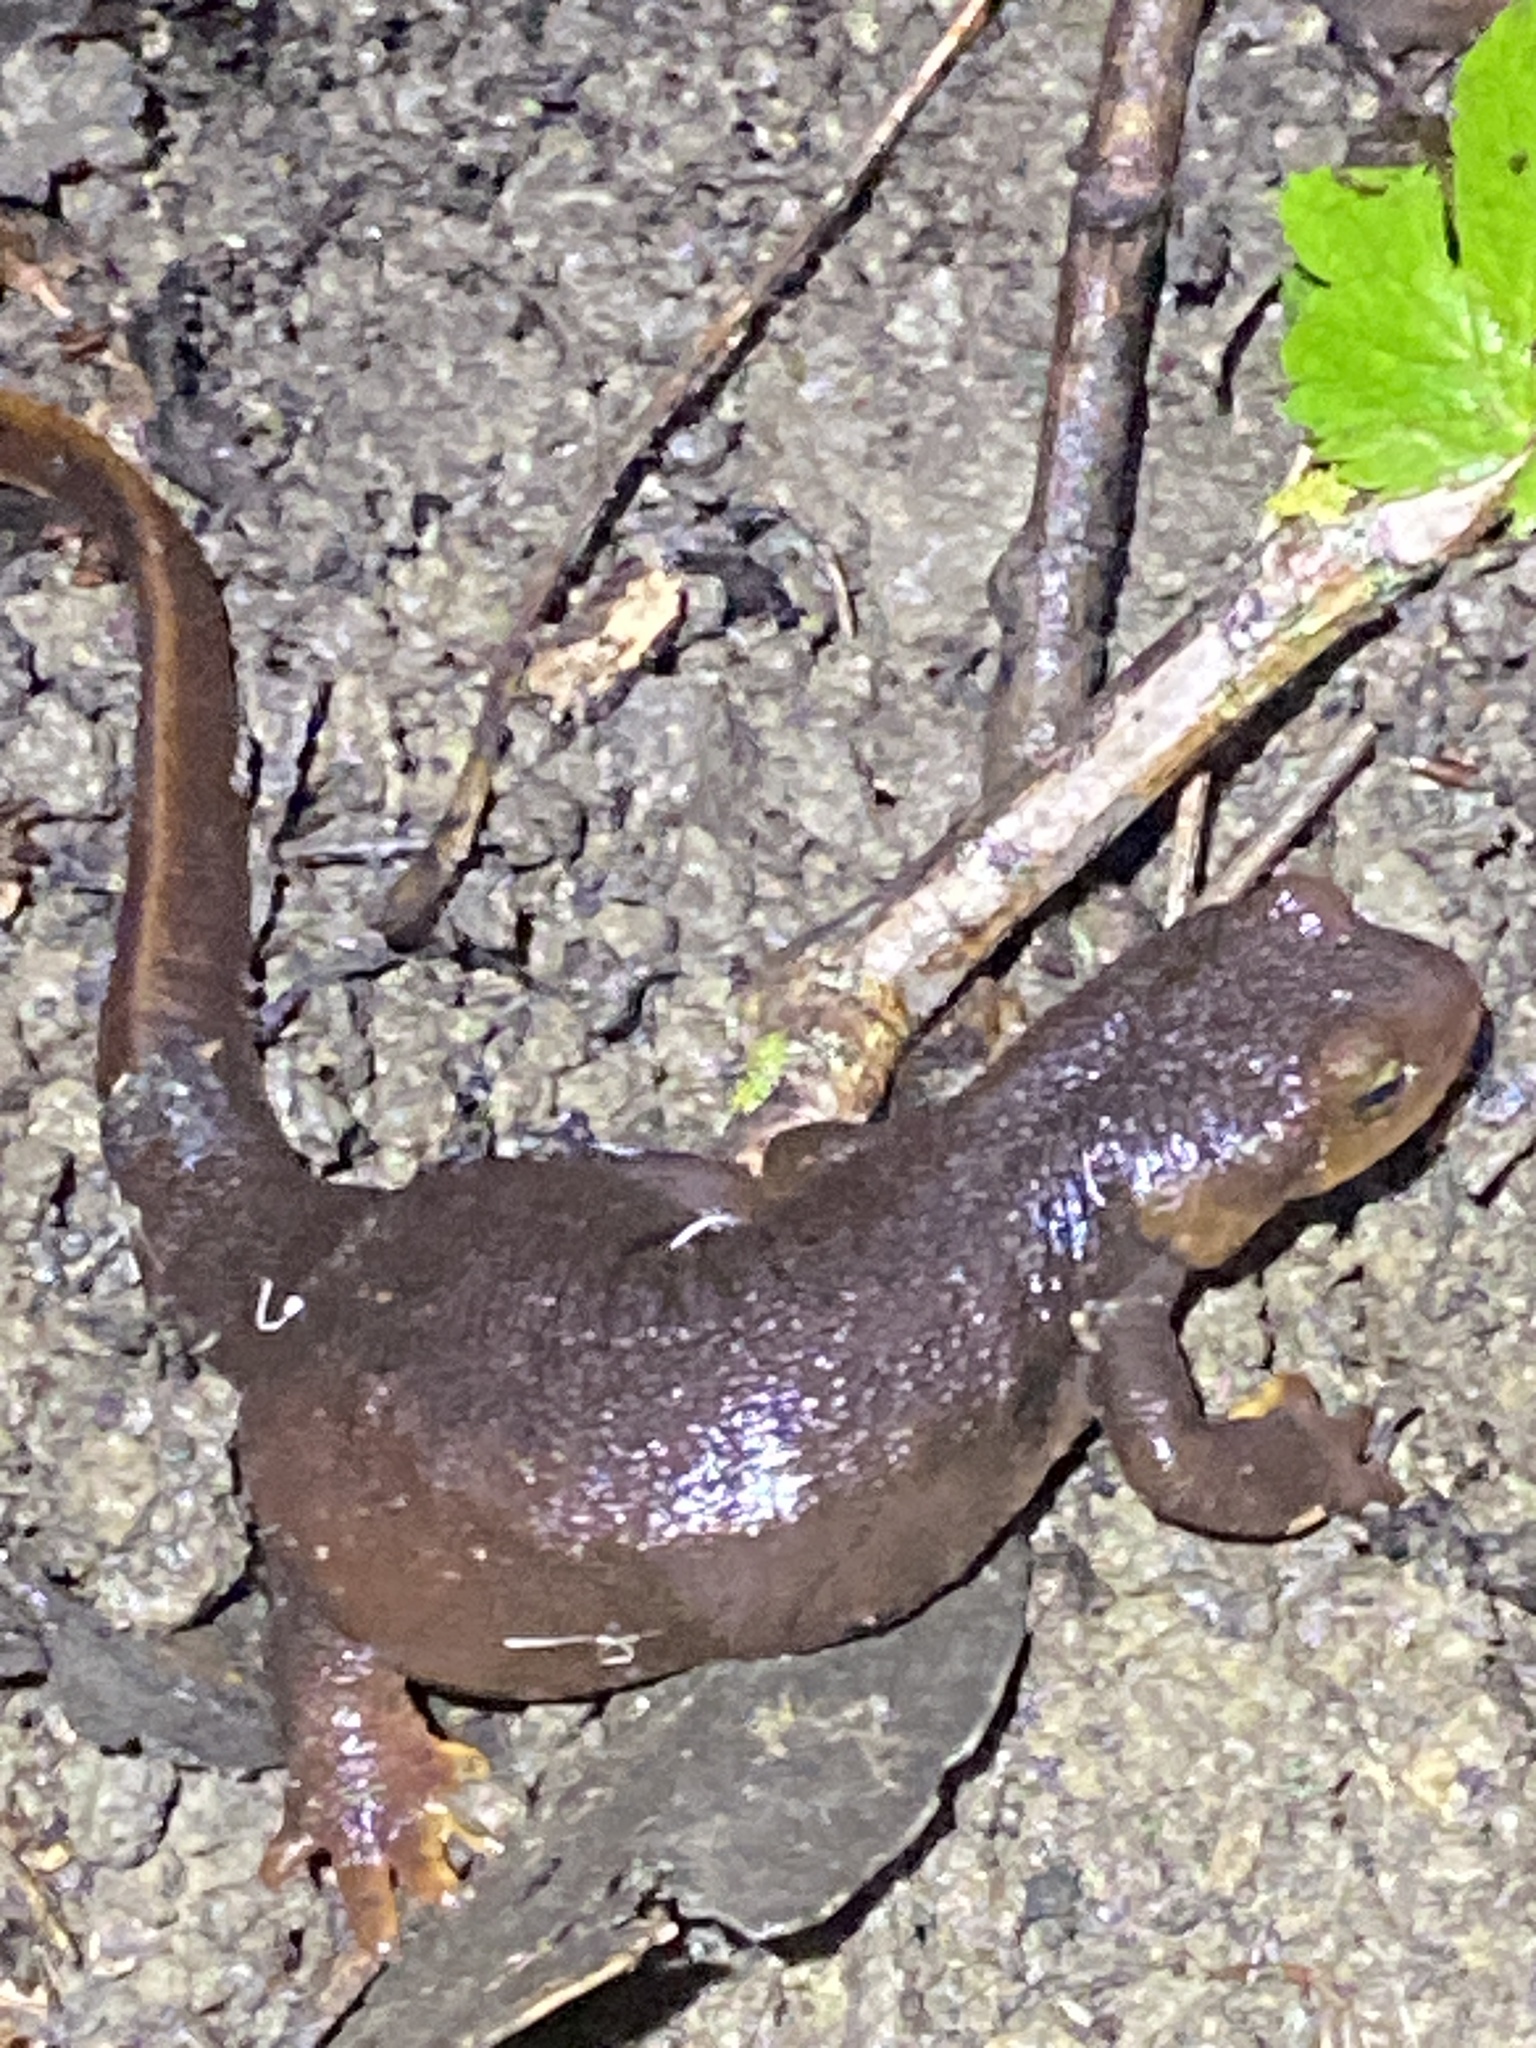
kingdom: Animalia
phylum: Chordata
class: Amphibia
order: Caudata
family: Salamandridae
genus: Taricha
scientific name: Taricha torosa
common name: California newt
